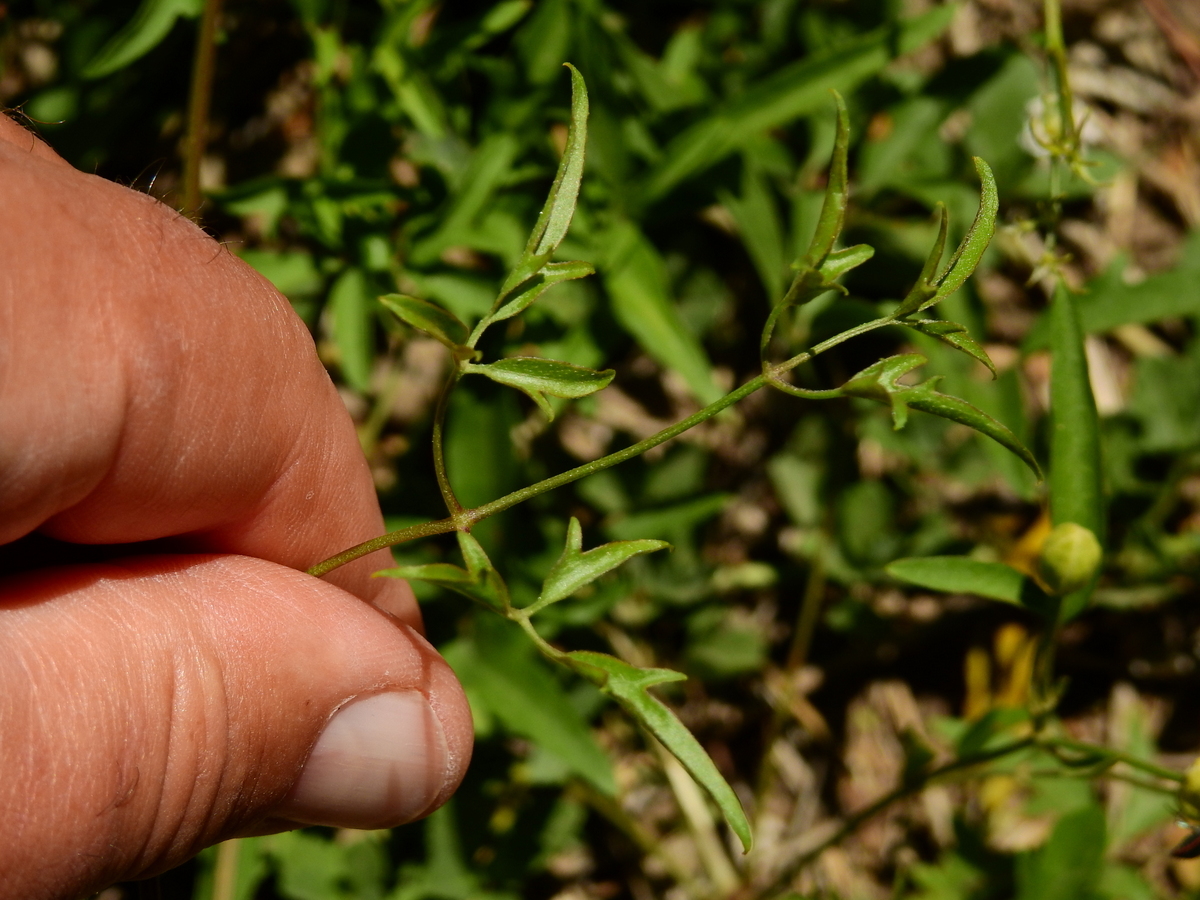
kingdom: Plantae
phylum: Tracheophyta
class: Magnoliopsida
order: Ranunculales
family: Ranunculaceae
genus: Clematis
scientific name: Clematis montevidensis
